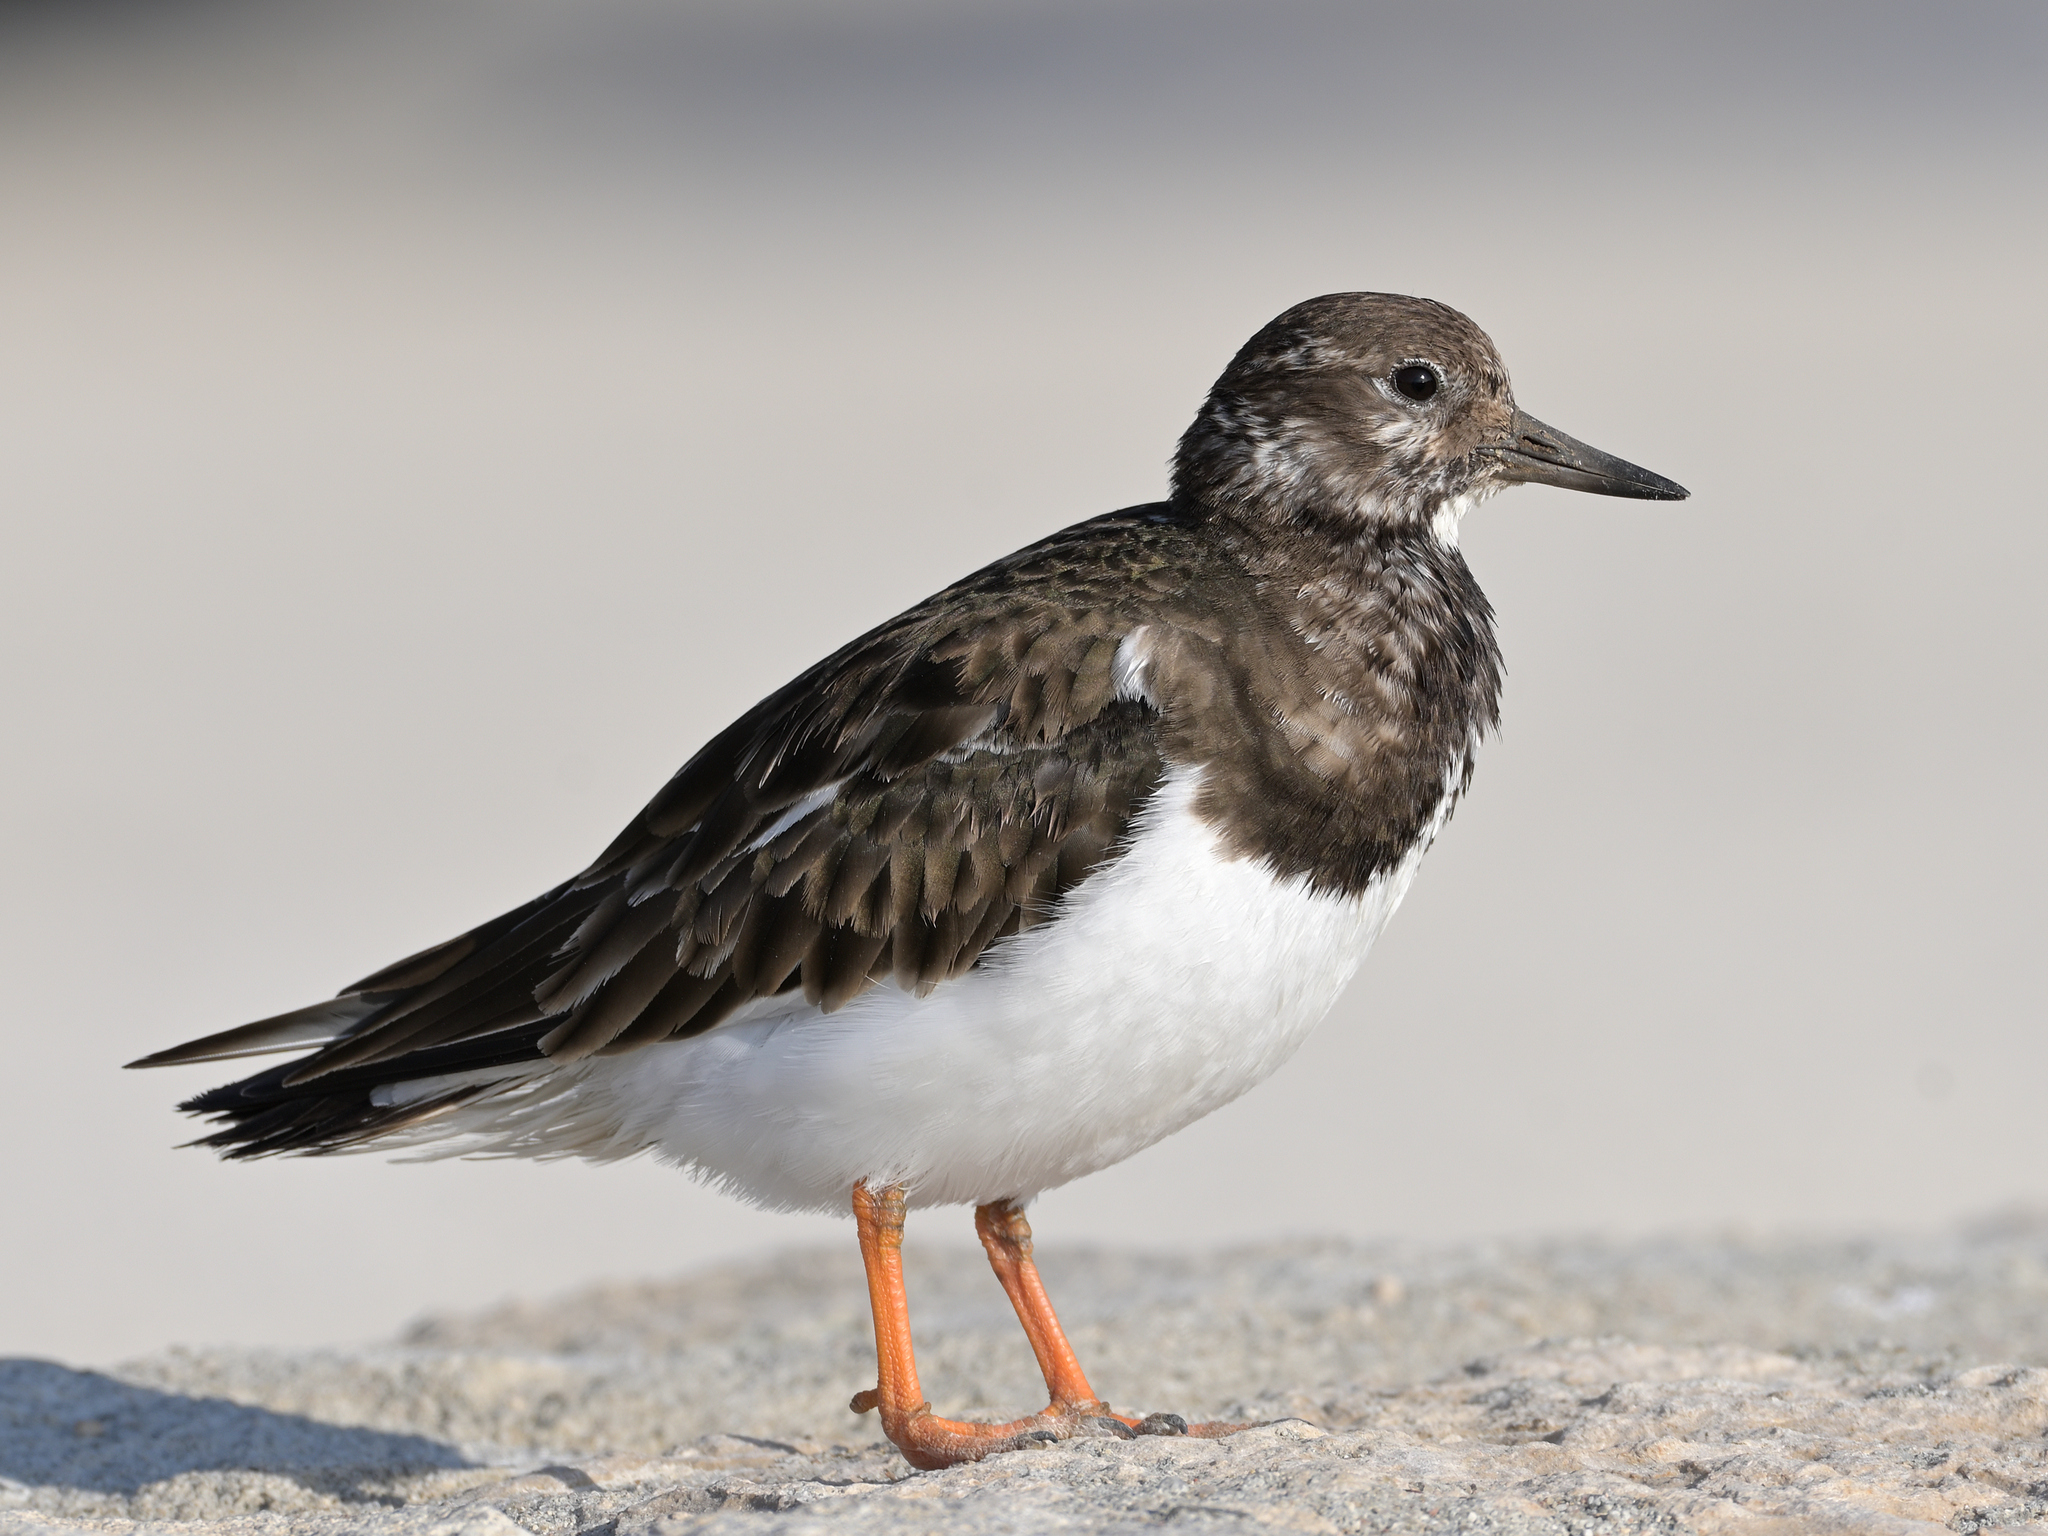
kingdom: Animalia
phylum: Chordata
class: Aves
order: Charadriiformes
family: Scolopacidae
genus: Arenaria
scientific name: Arenaria interpres
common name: Ruddy turnstone
